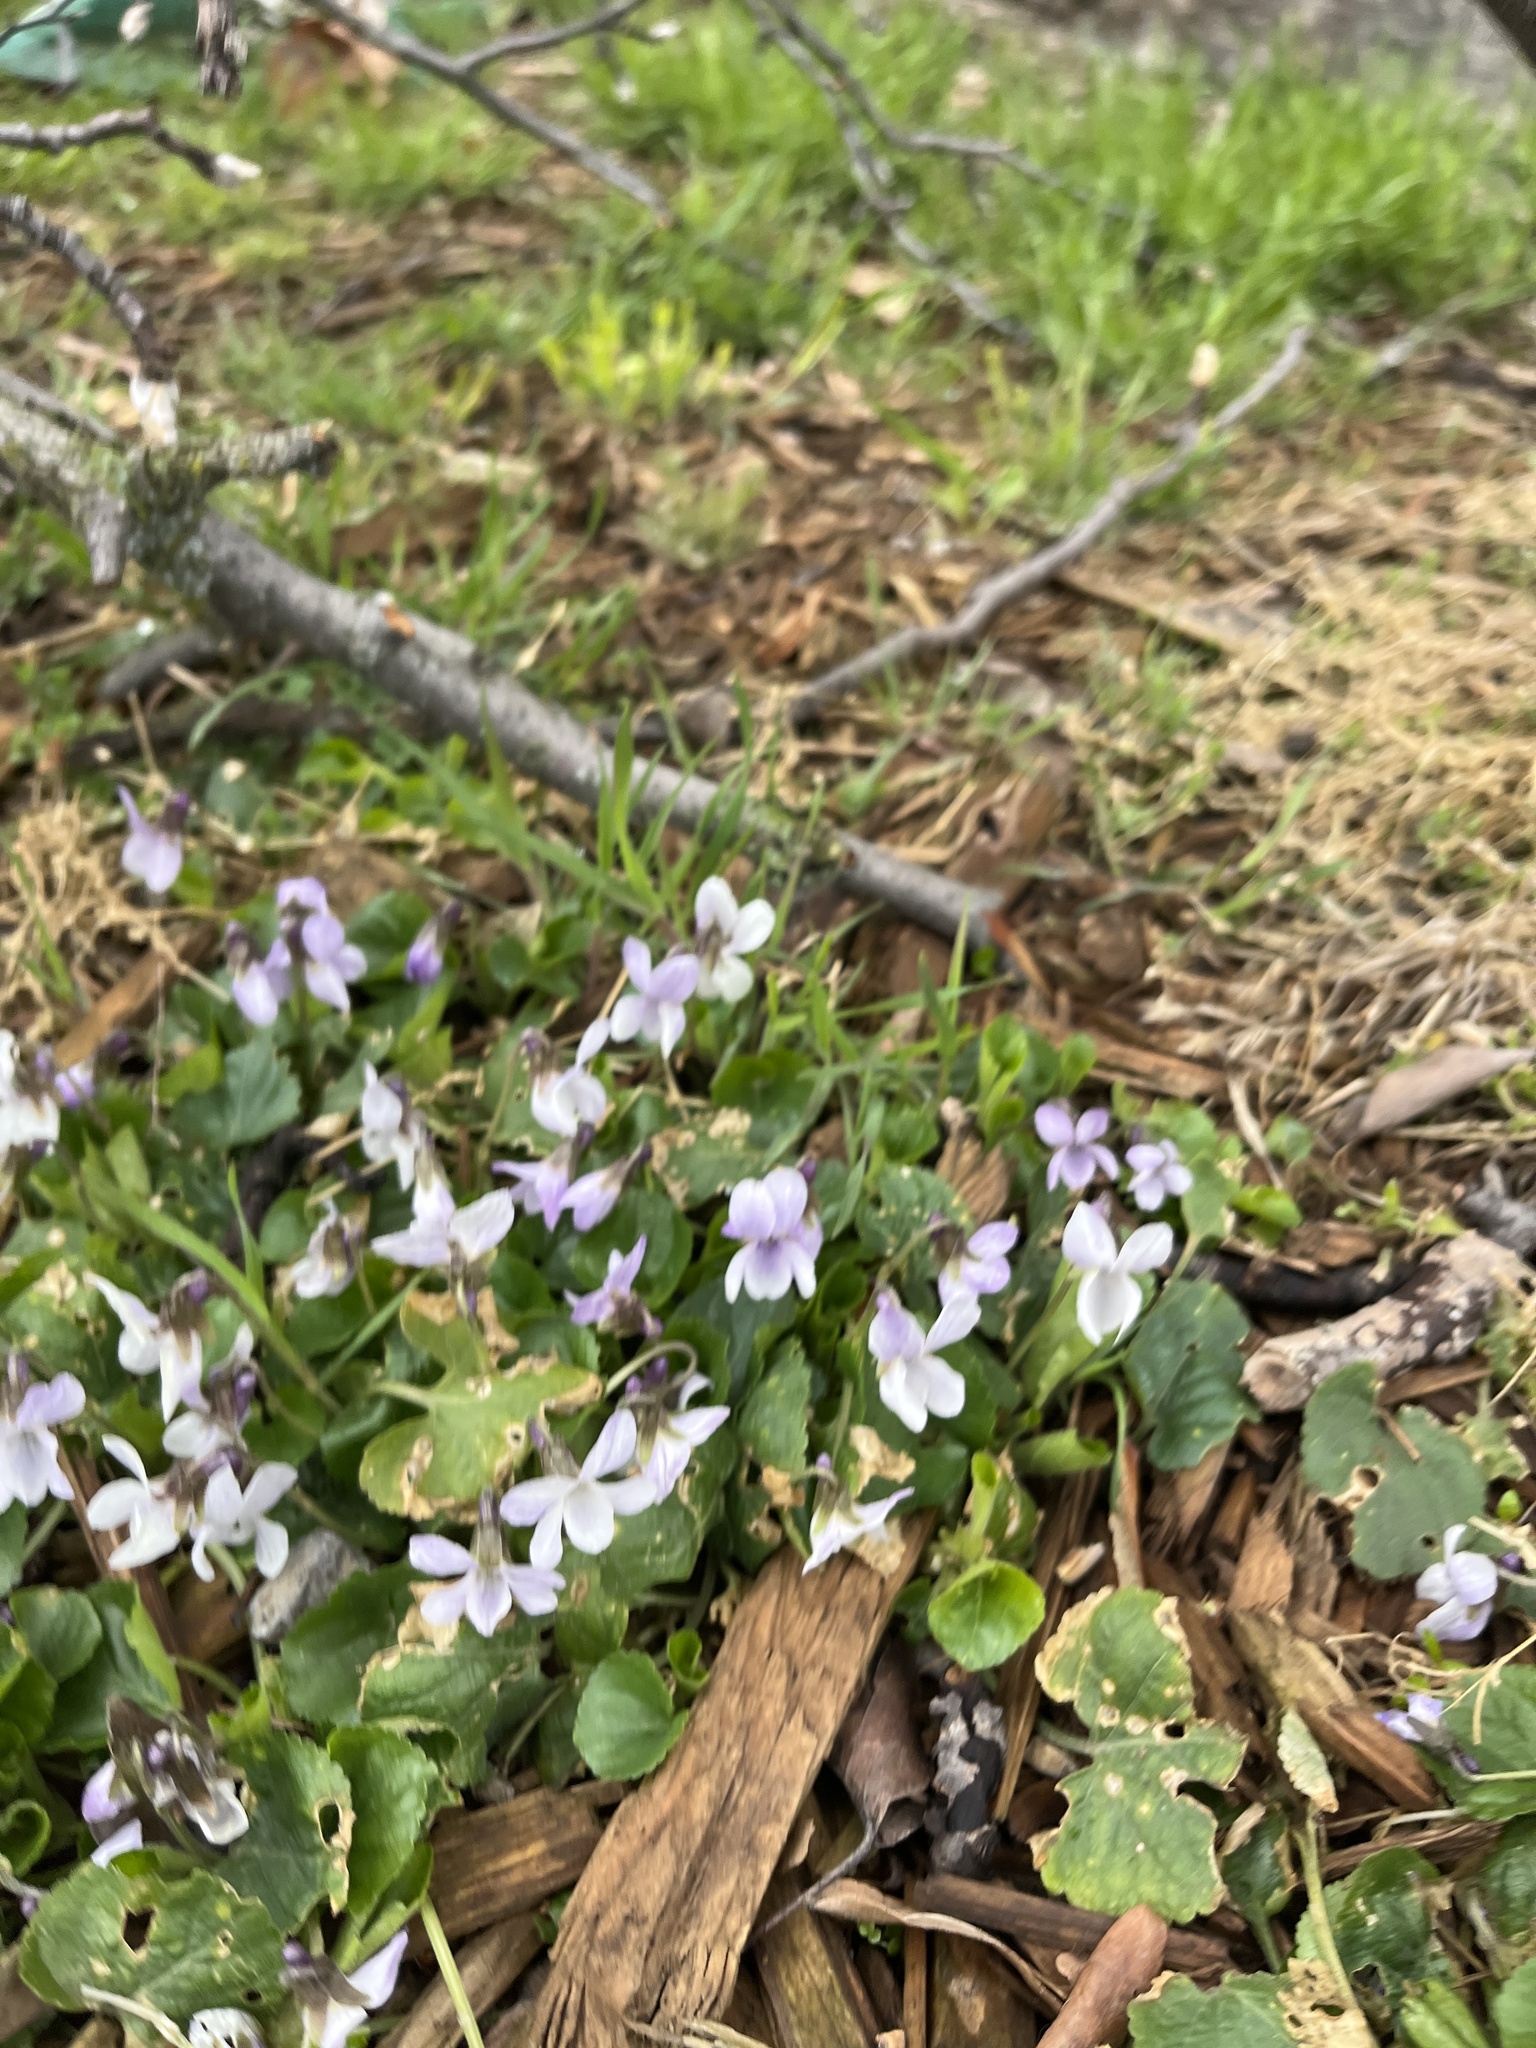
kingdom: Plantae
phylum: Tracheophyta
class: Magnoliopsida
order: Malpighiales
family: Violaceae
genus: Viola
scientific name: Viola odorata
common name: Sweet violet
